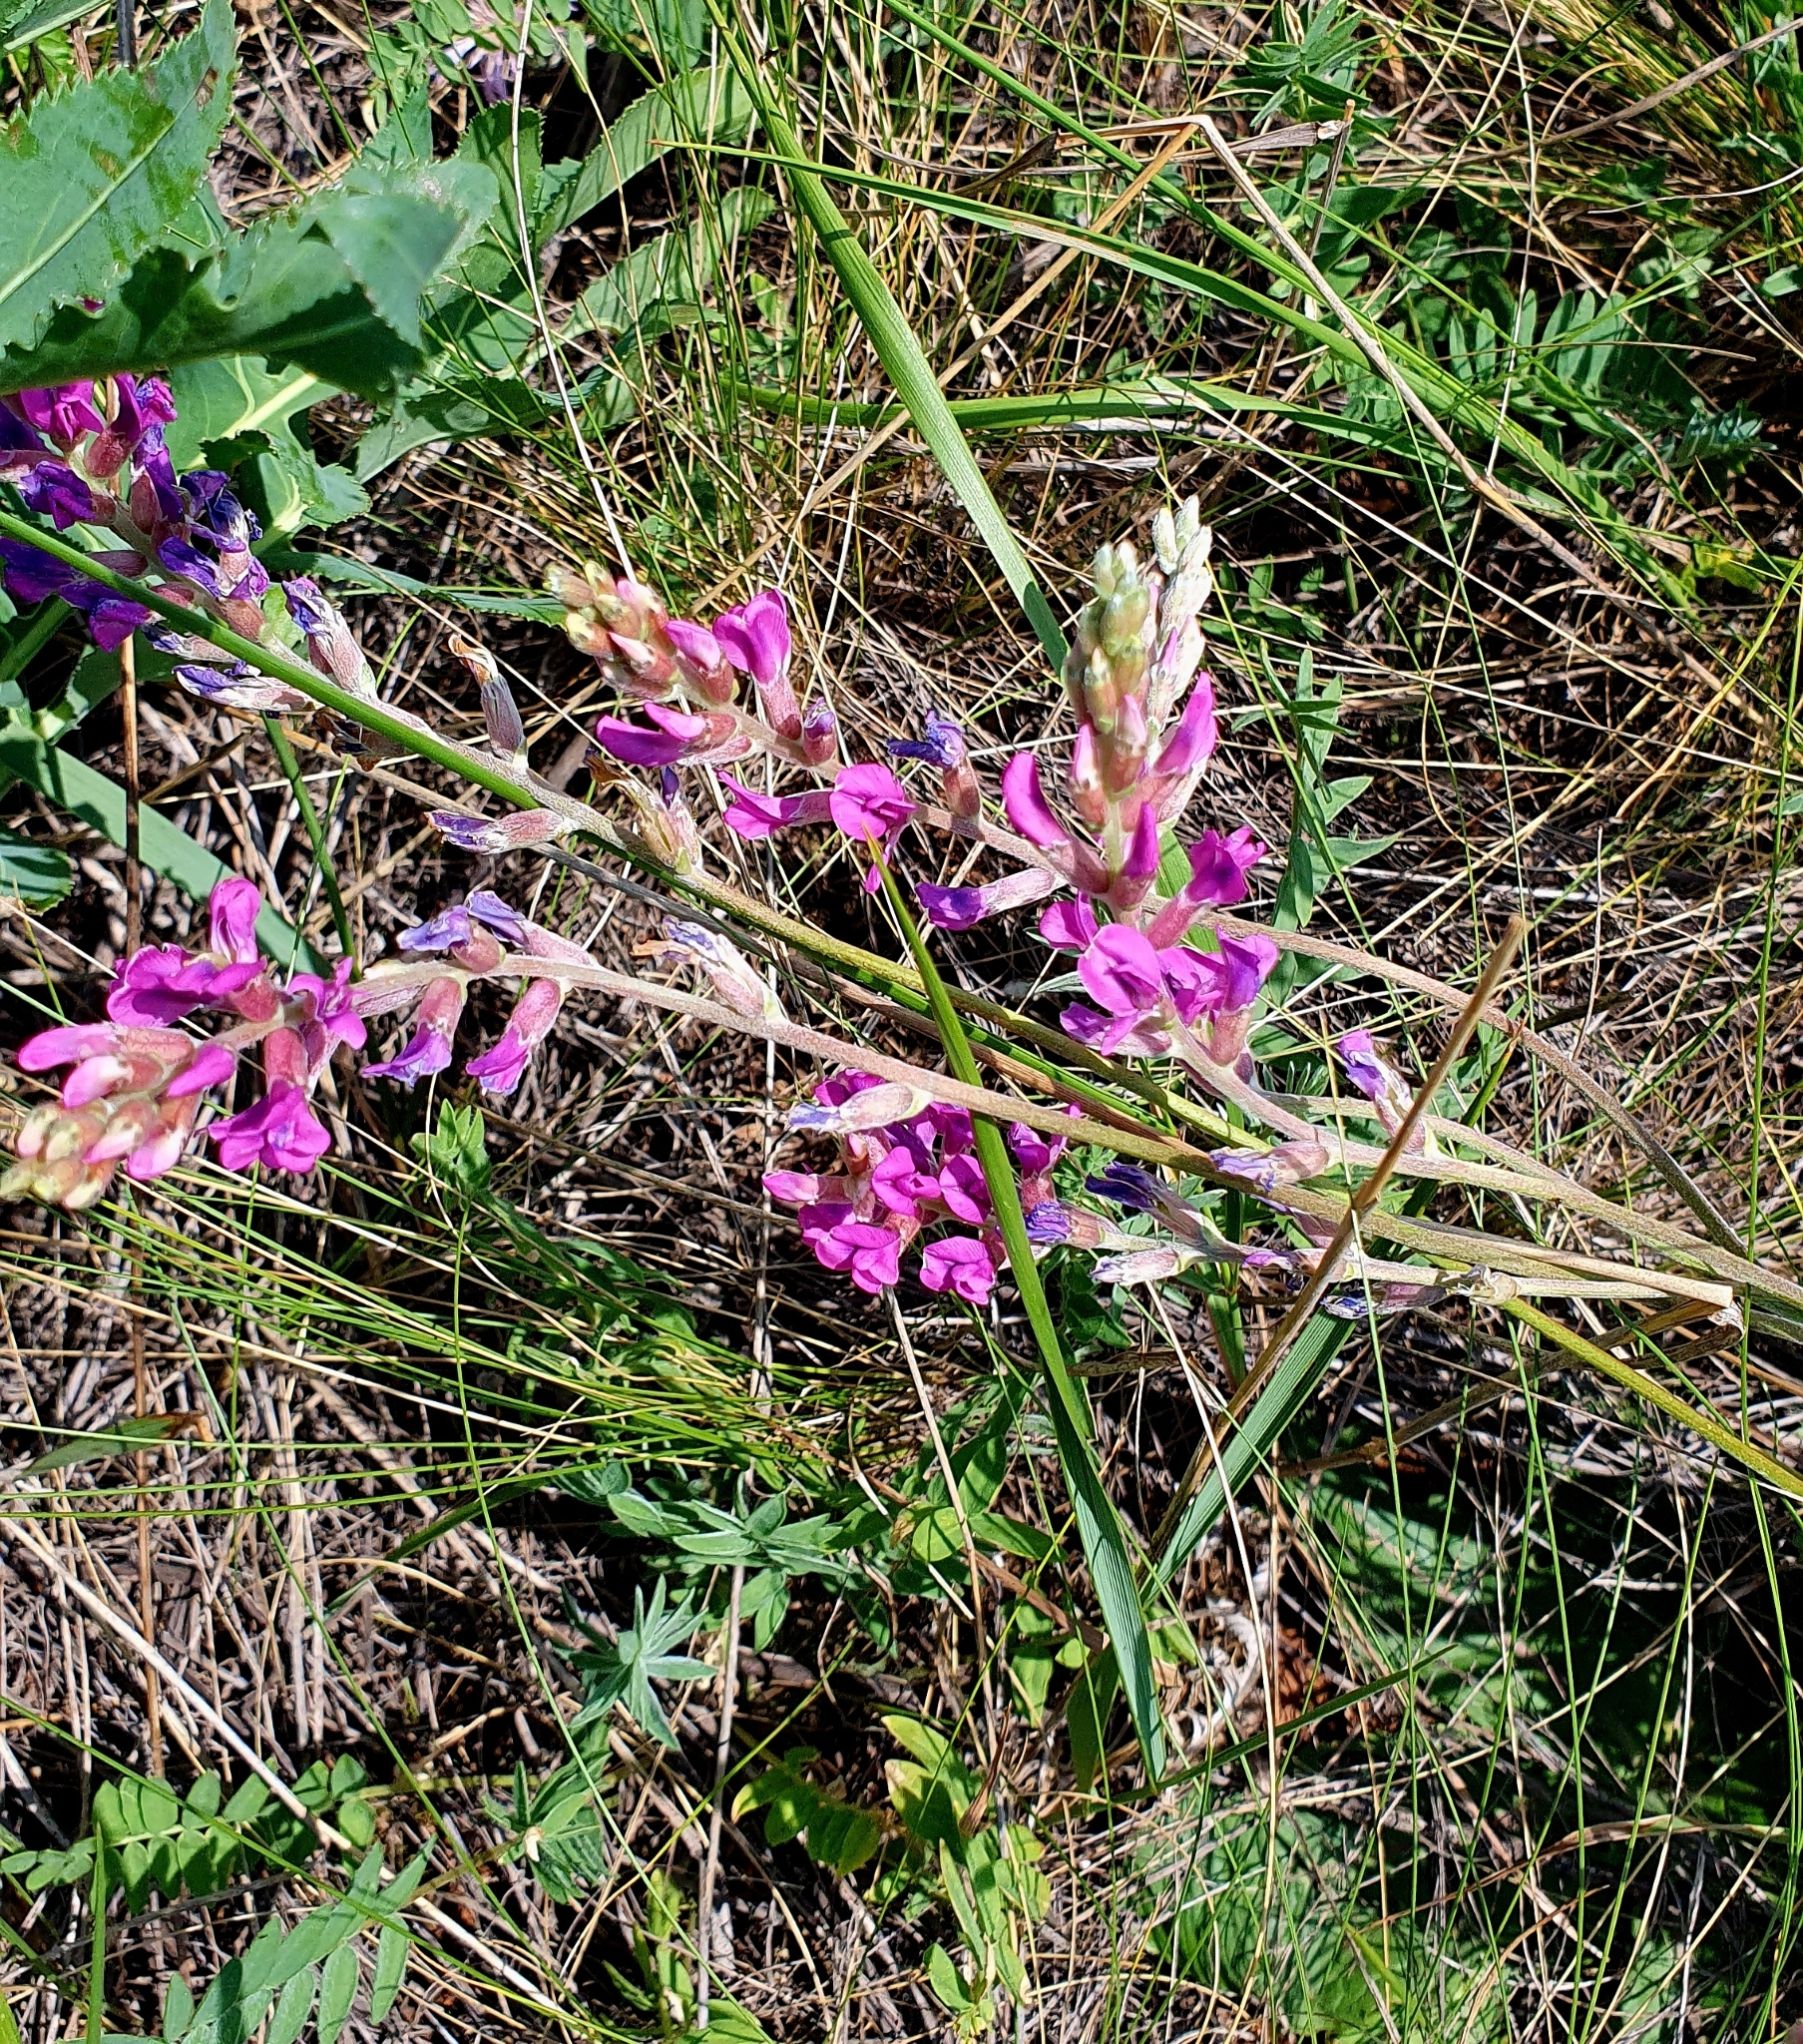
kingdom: Plantae
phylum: Tracheophyta
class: Magnoliopsida
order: Fabales
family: Fabaceae
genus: Oxytropis
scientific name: Oxytropis knjazevii
